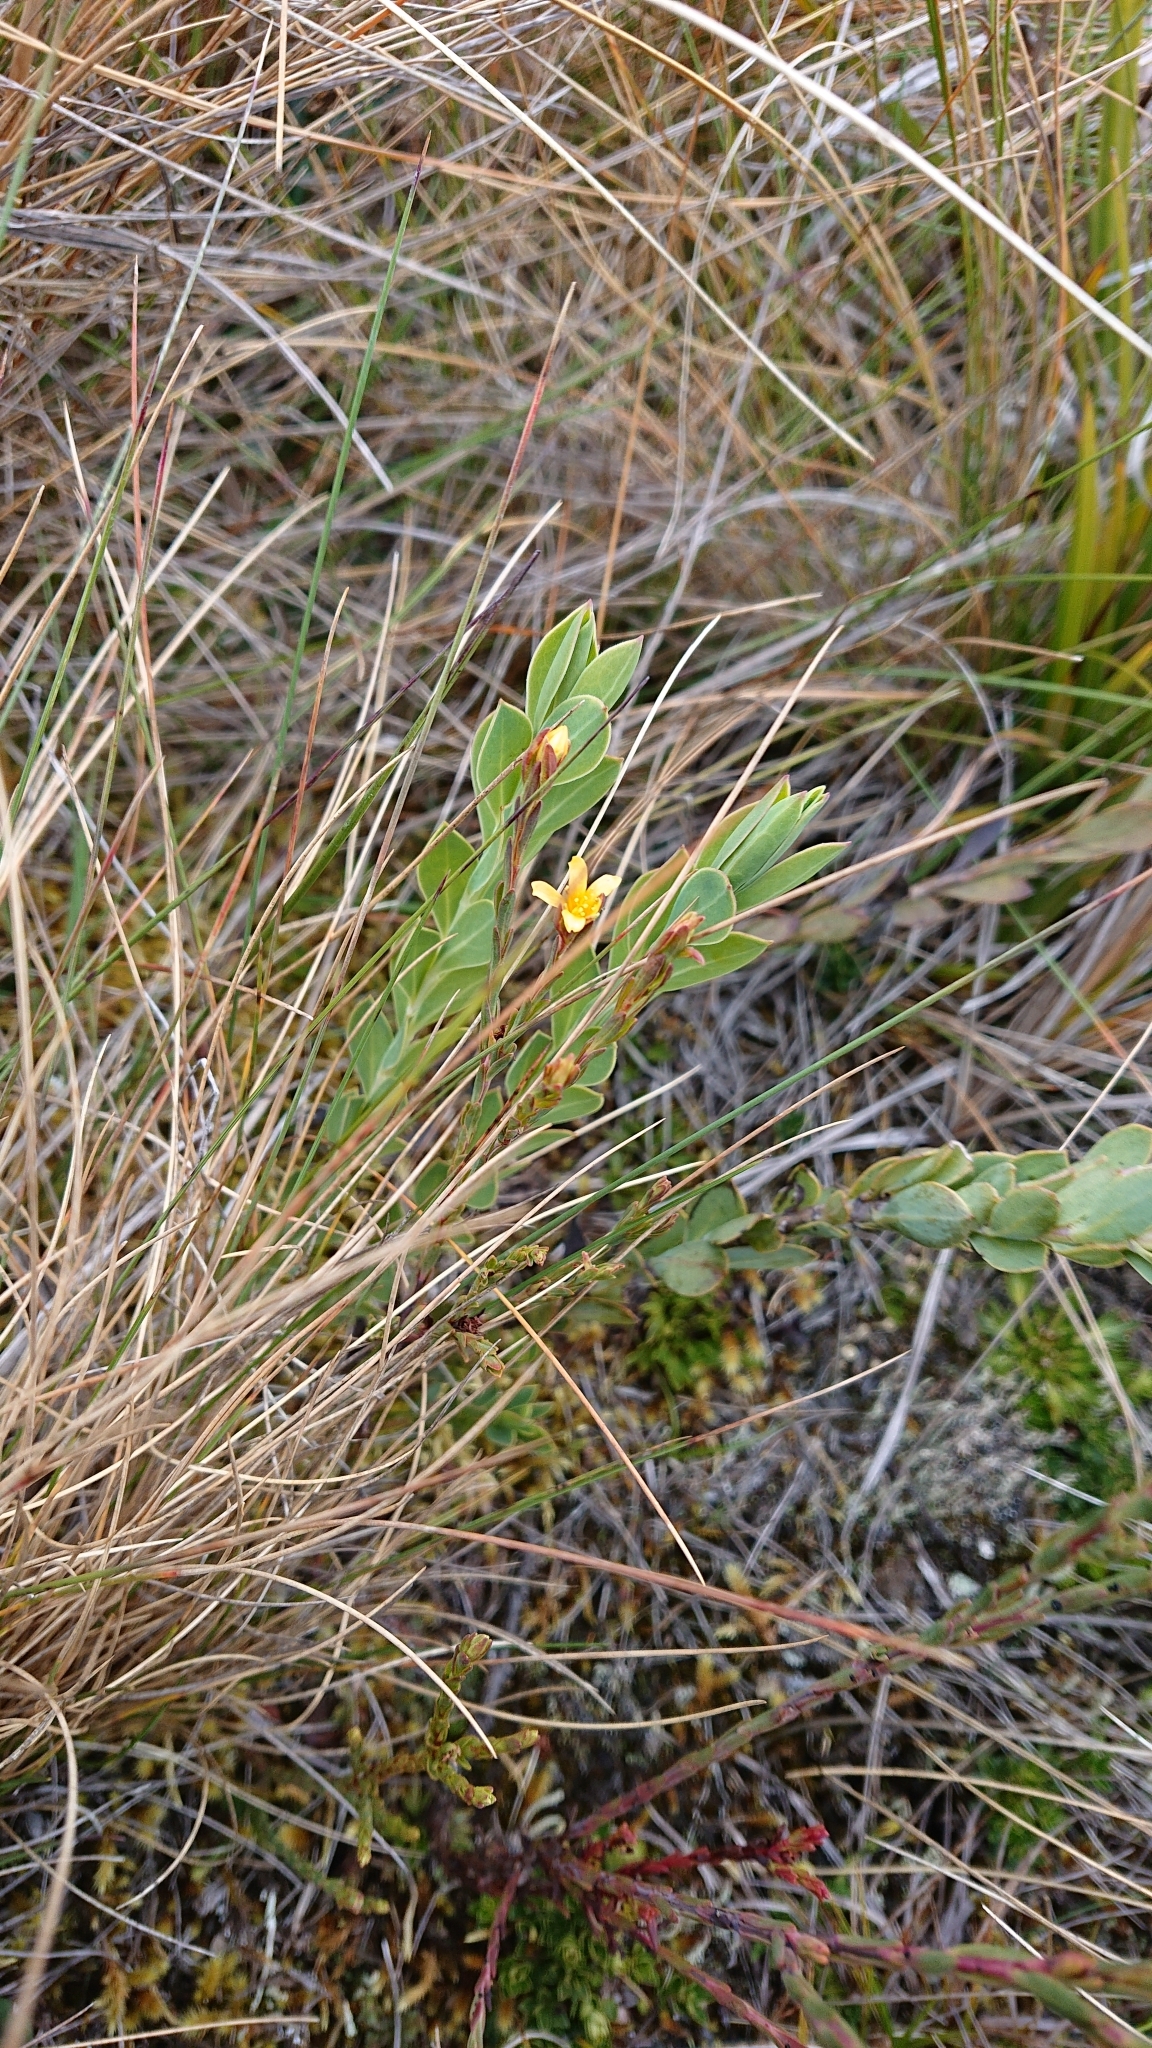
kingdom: Plantae
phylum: Tracheophyta
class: Magnoliopsida
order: Malpighiales
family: Hypericaceae
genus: Hypericum
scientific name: Hypericum decandrum
